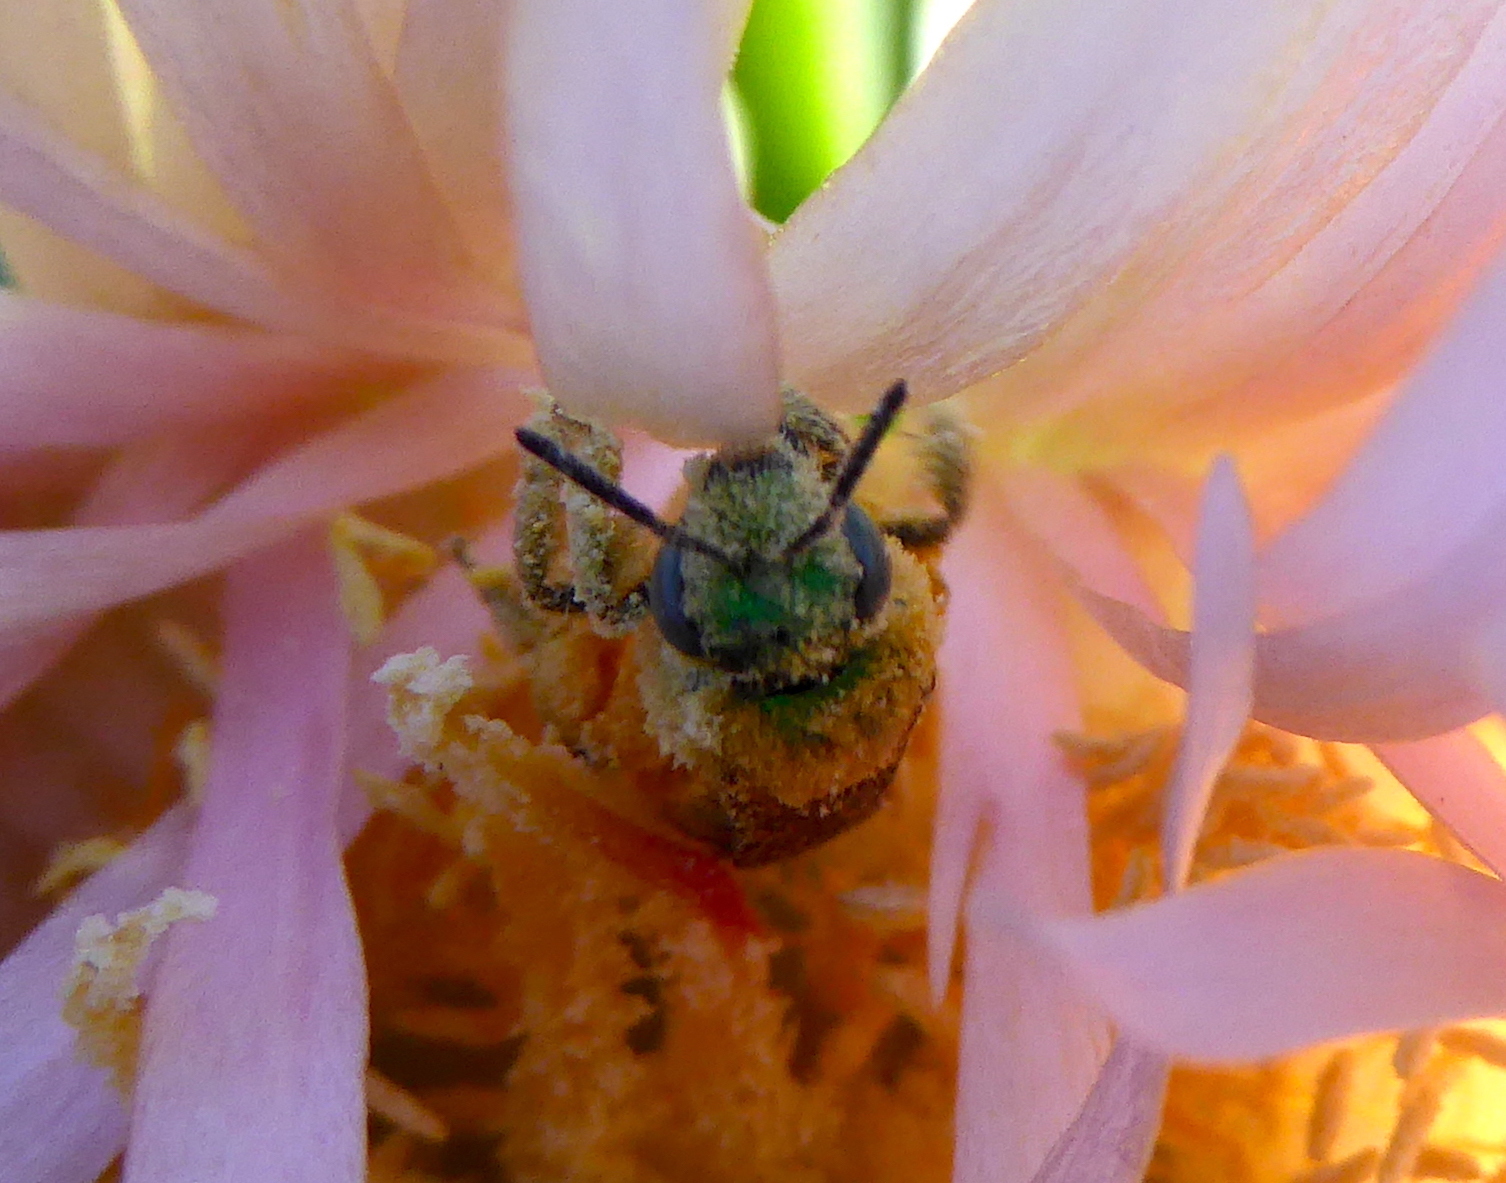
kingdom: Animalia
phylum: Arthropoda
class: Insecta
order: Hymenoptera
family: Halictidae
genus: Agapostemon
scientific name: Agapostemon
